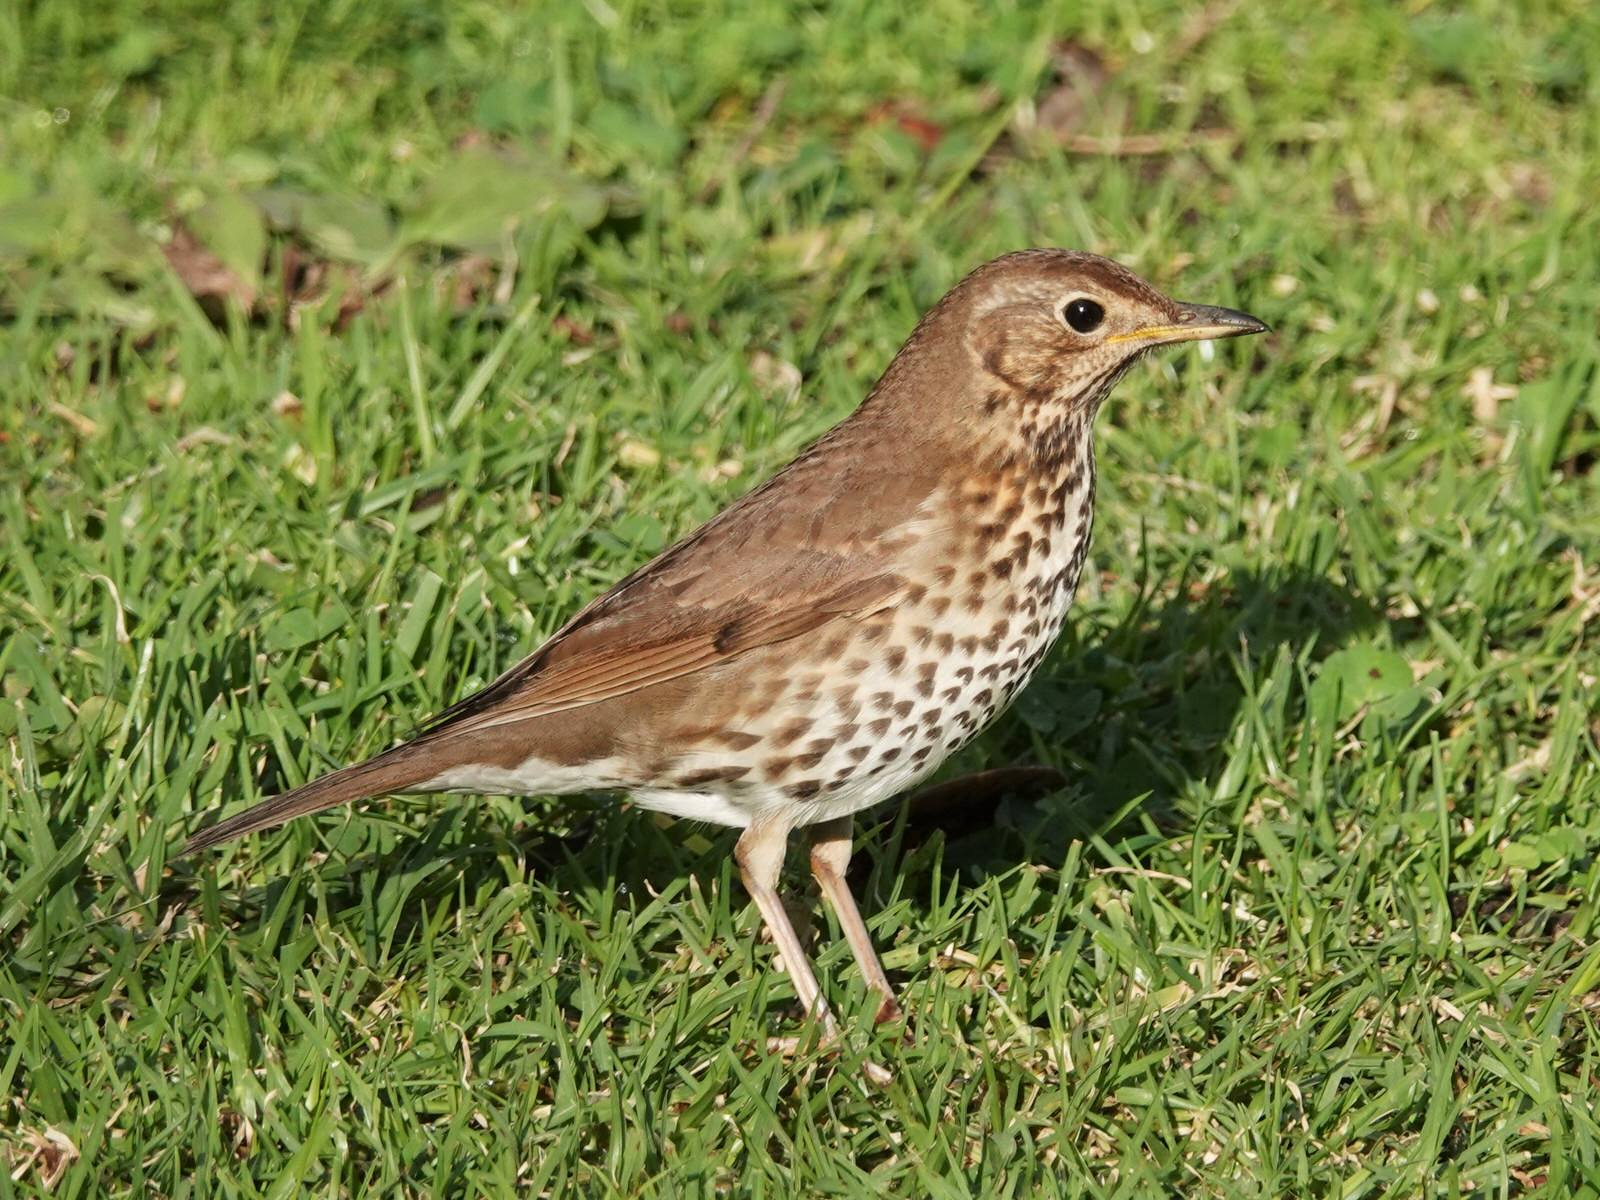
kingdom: Animalia
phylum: Chordata
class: Aves
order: Passeriformes
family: Turdidae
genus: Turdus
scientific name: Turdus philomelos
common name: Song thrush
